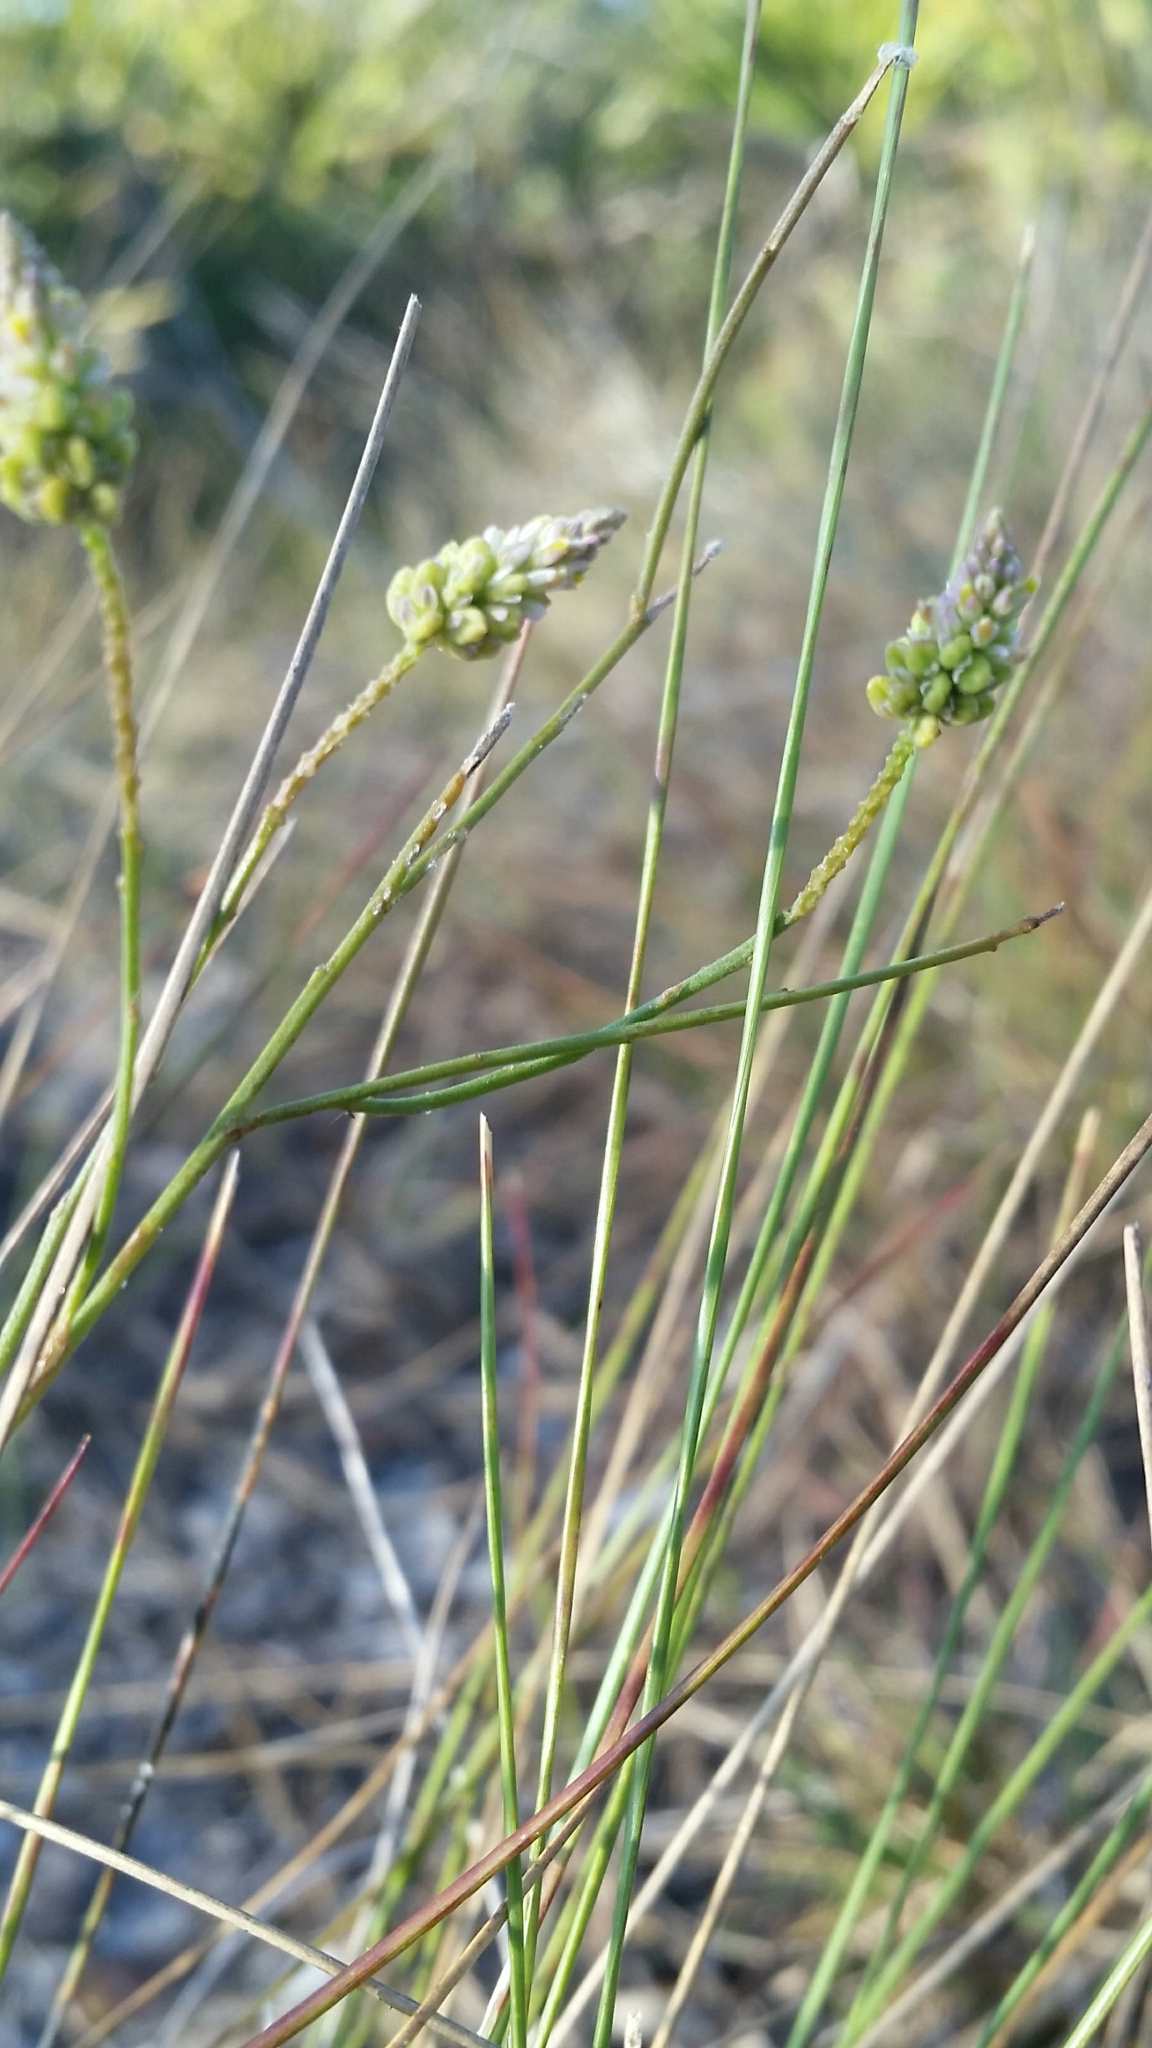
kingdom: Plantae
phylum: Tracheophyta
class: Magnoliopsida
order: Fabales
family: Polygalaceae
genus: Polygala
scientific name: Polygala setacea
